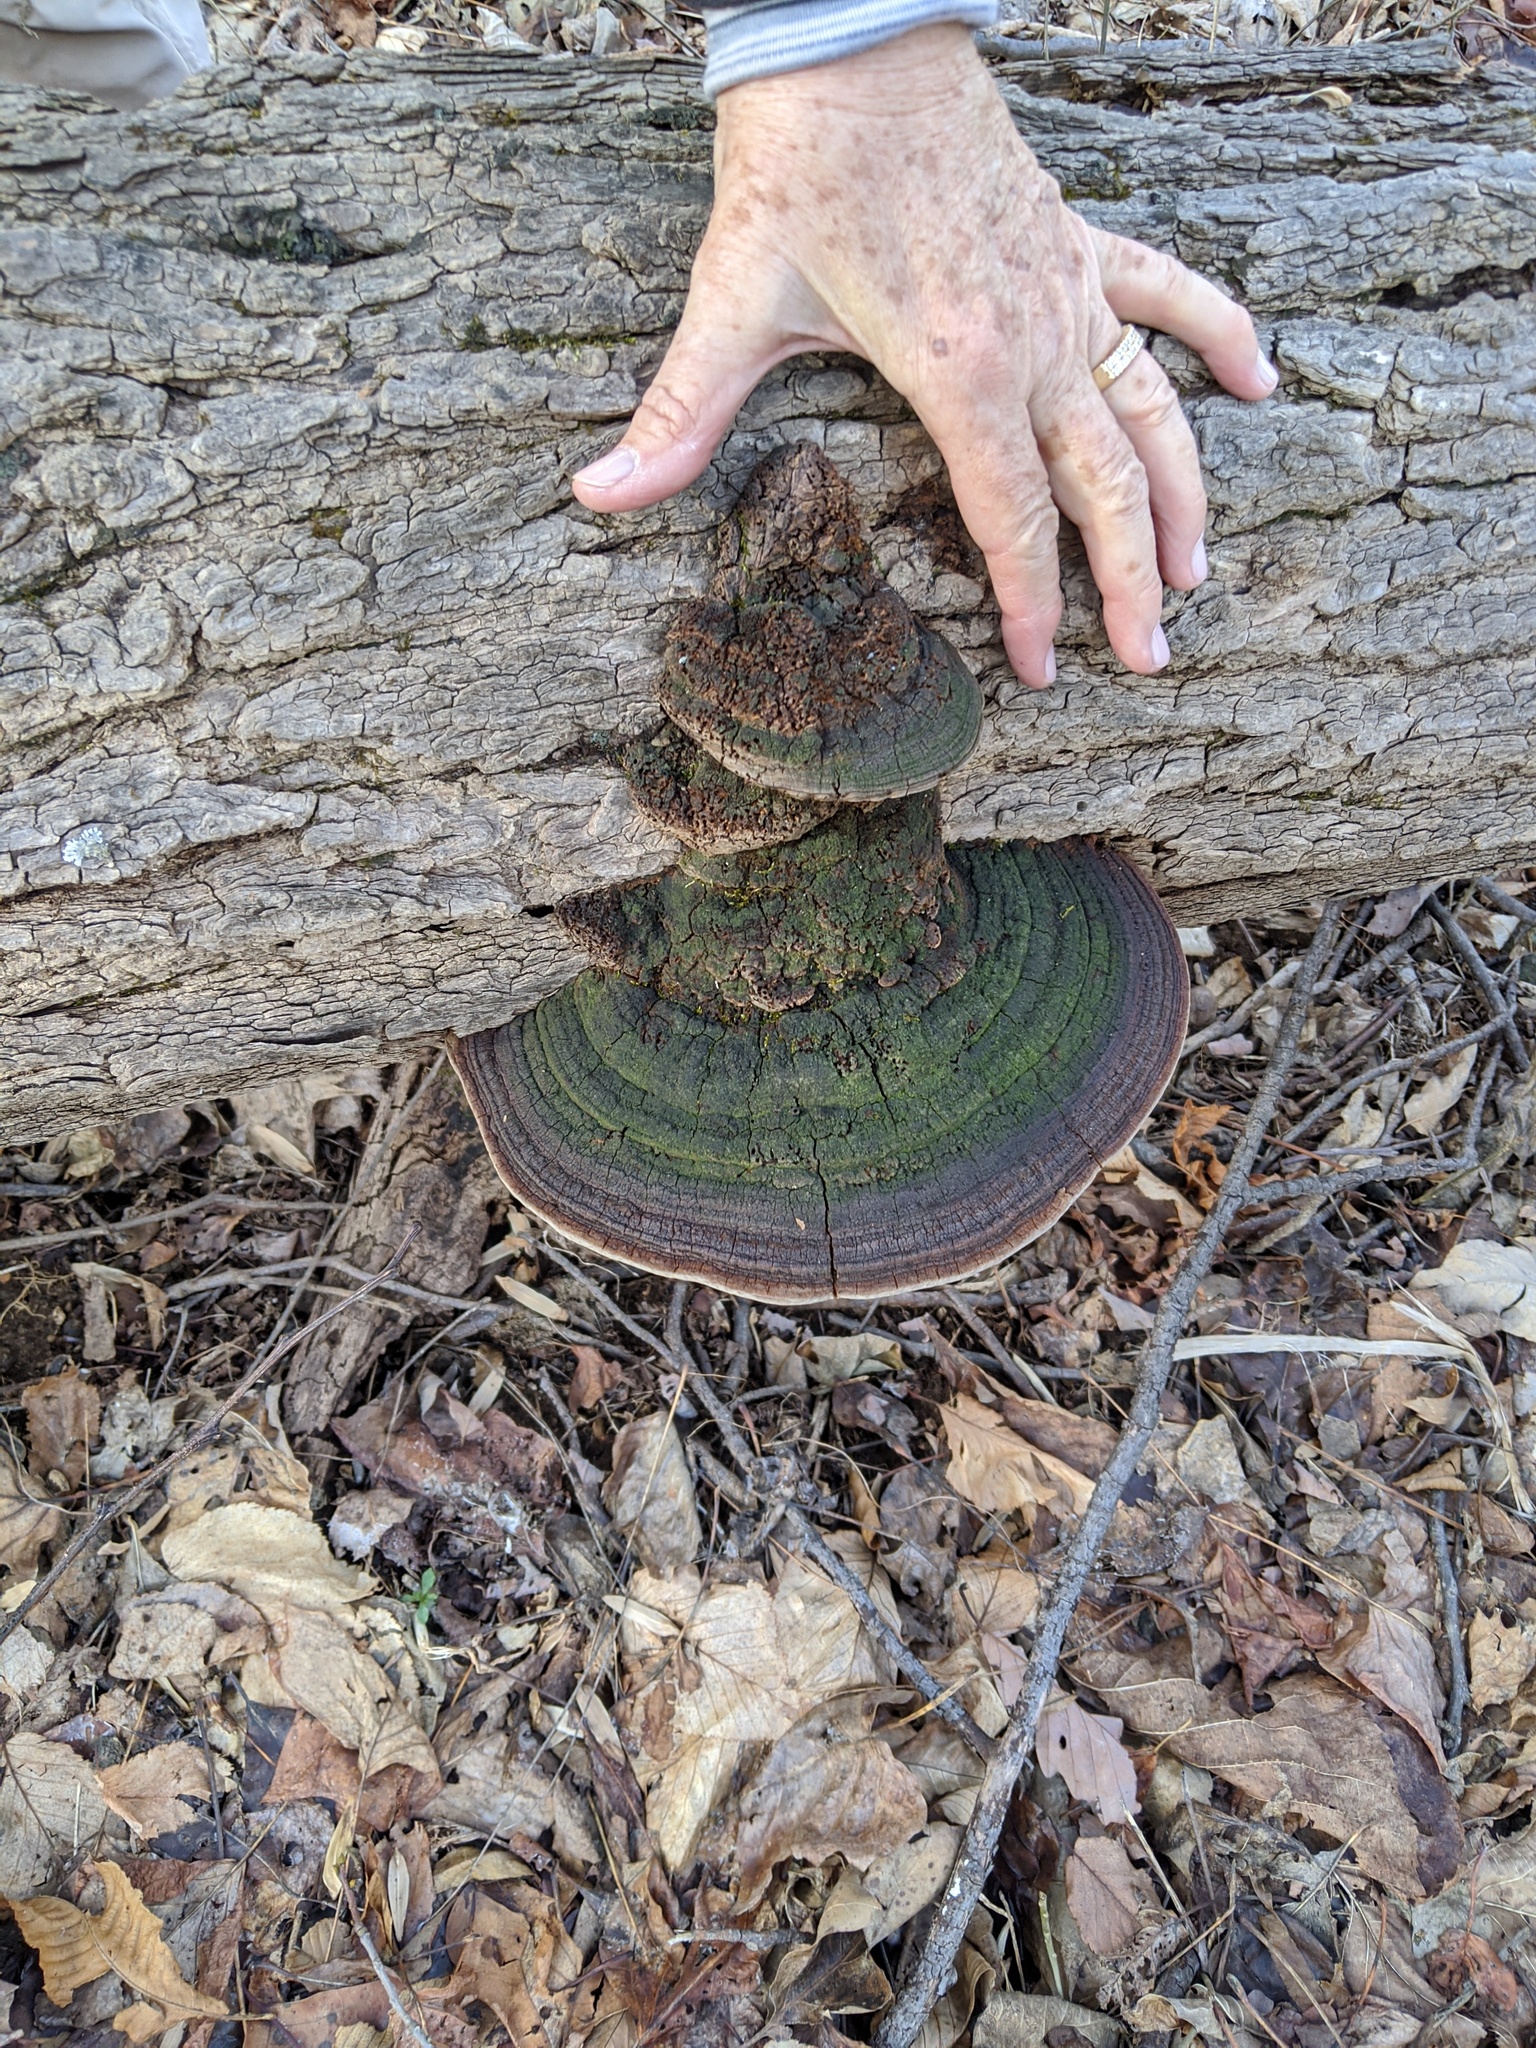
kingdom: Fungi
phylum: Basidiomycota
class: Agaricomycetes
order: Hymenochaetales
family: Hymenochaetaceae
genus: Phellinus
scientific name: Phellinus robiniae
